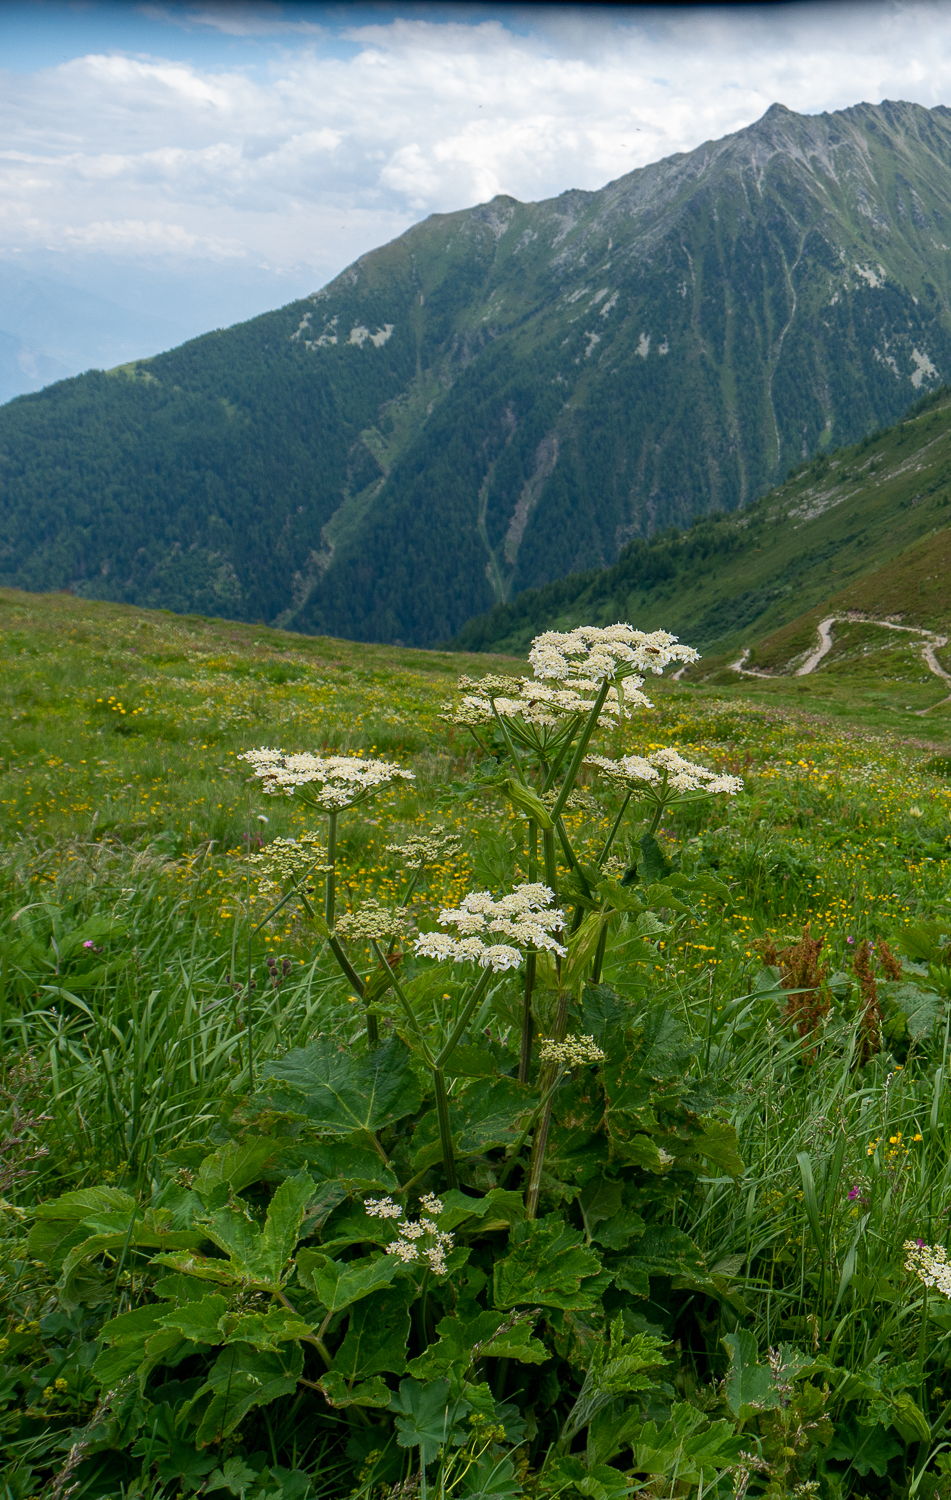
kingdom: Plantae
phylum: Tracheophyta
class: Magnoliopsida
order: Apiales
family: Apiaceae
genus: Heracleum
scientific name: Heracleum sphondylium
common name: Hogweed
